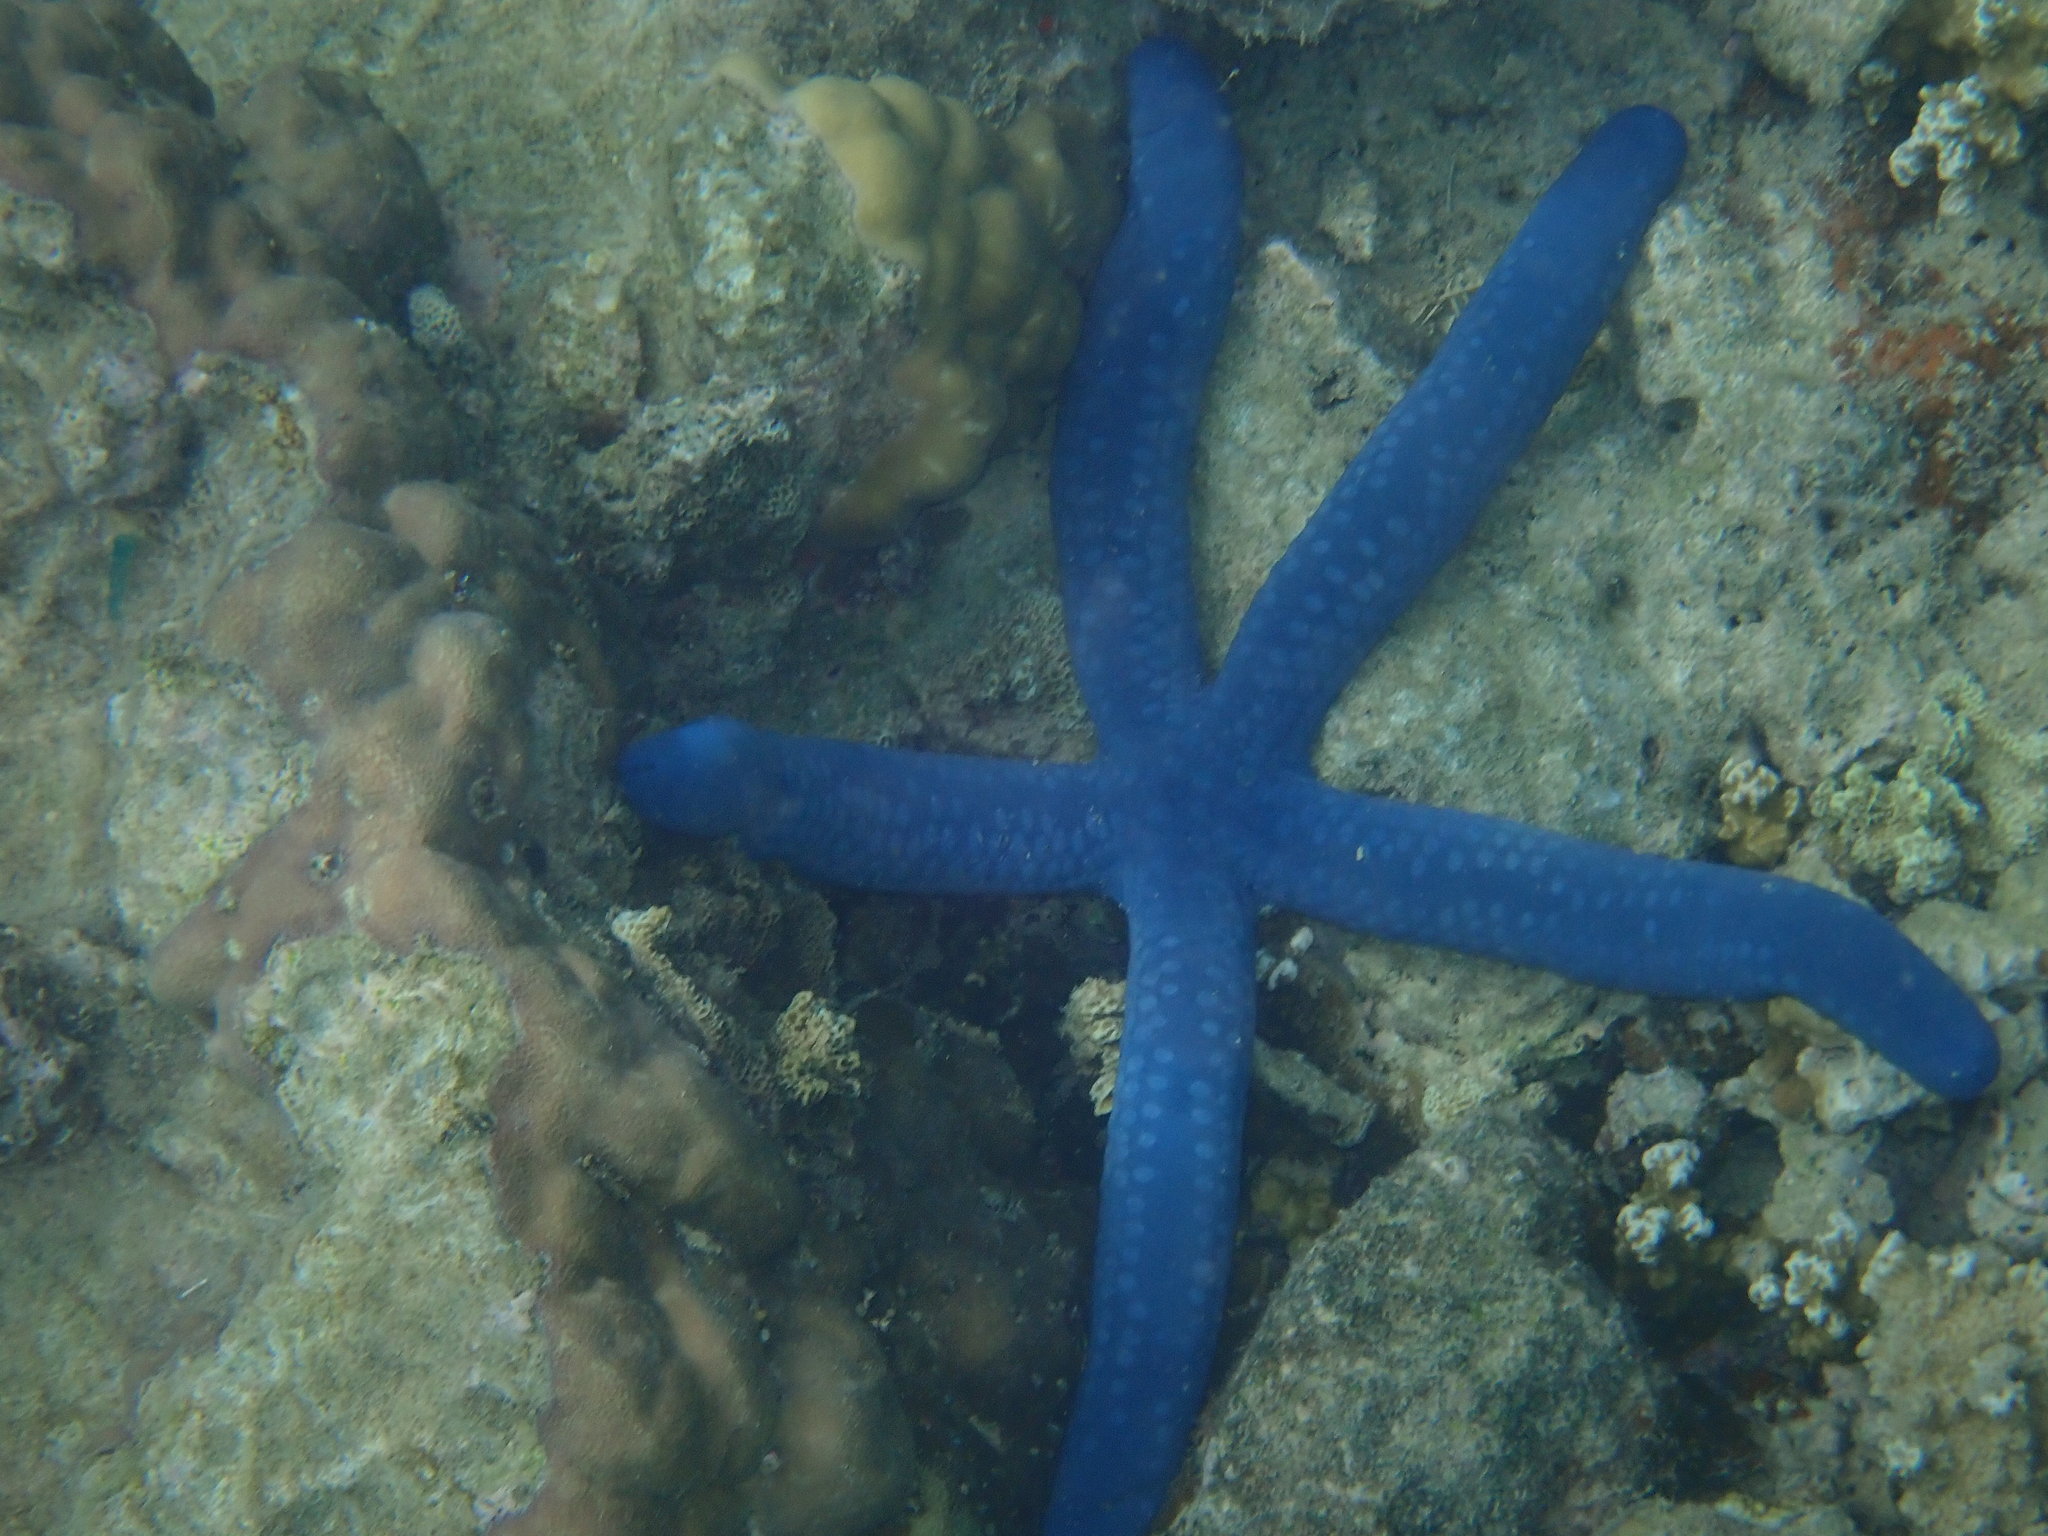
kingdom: Animalia
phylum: Echinodermata
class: Asteroidea
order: Valvatida
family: Ophidiasteridae
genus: Linckia
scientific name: Linckia laevigata
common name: Azure sea star
